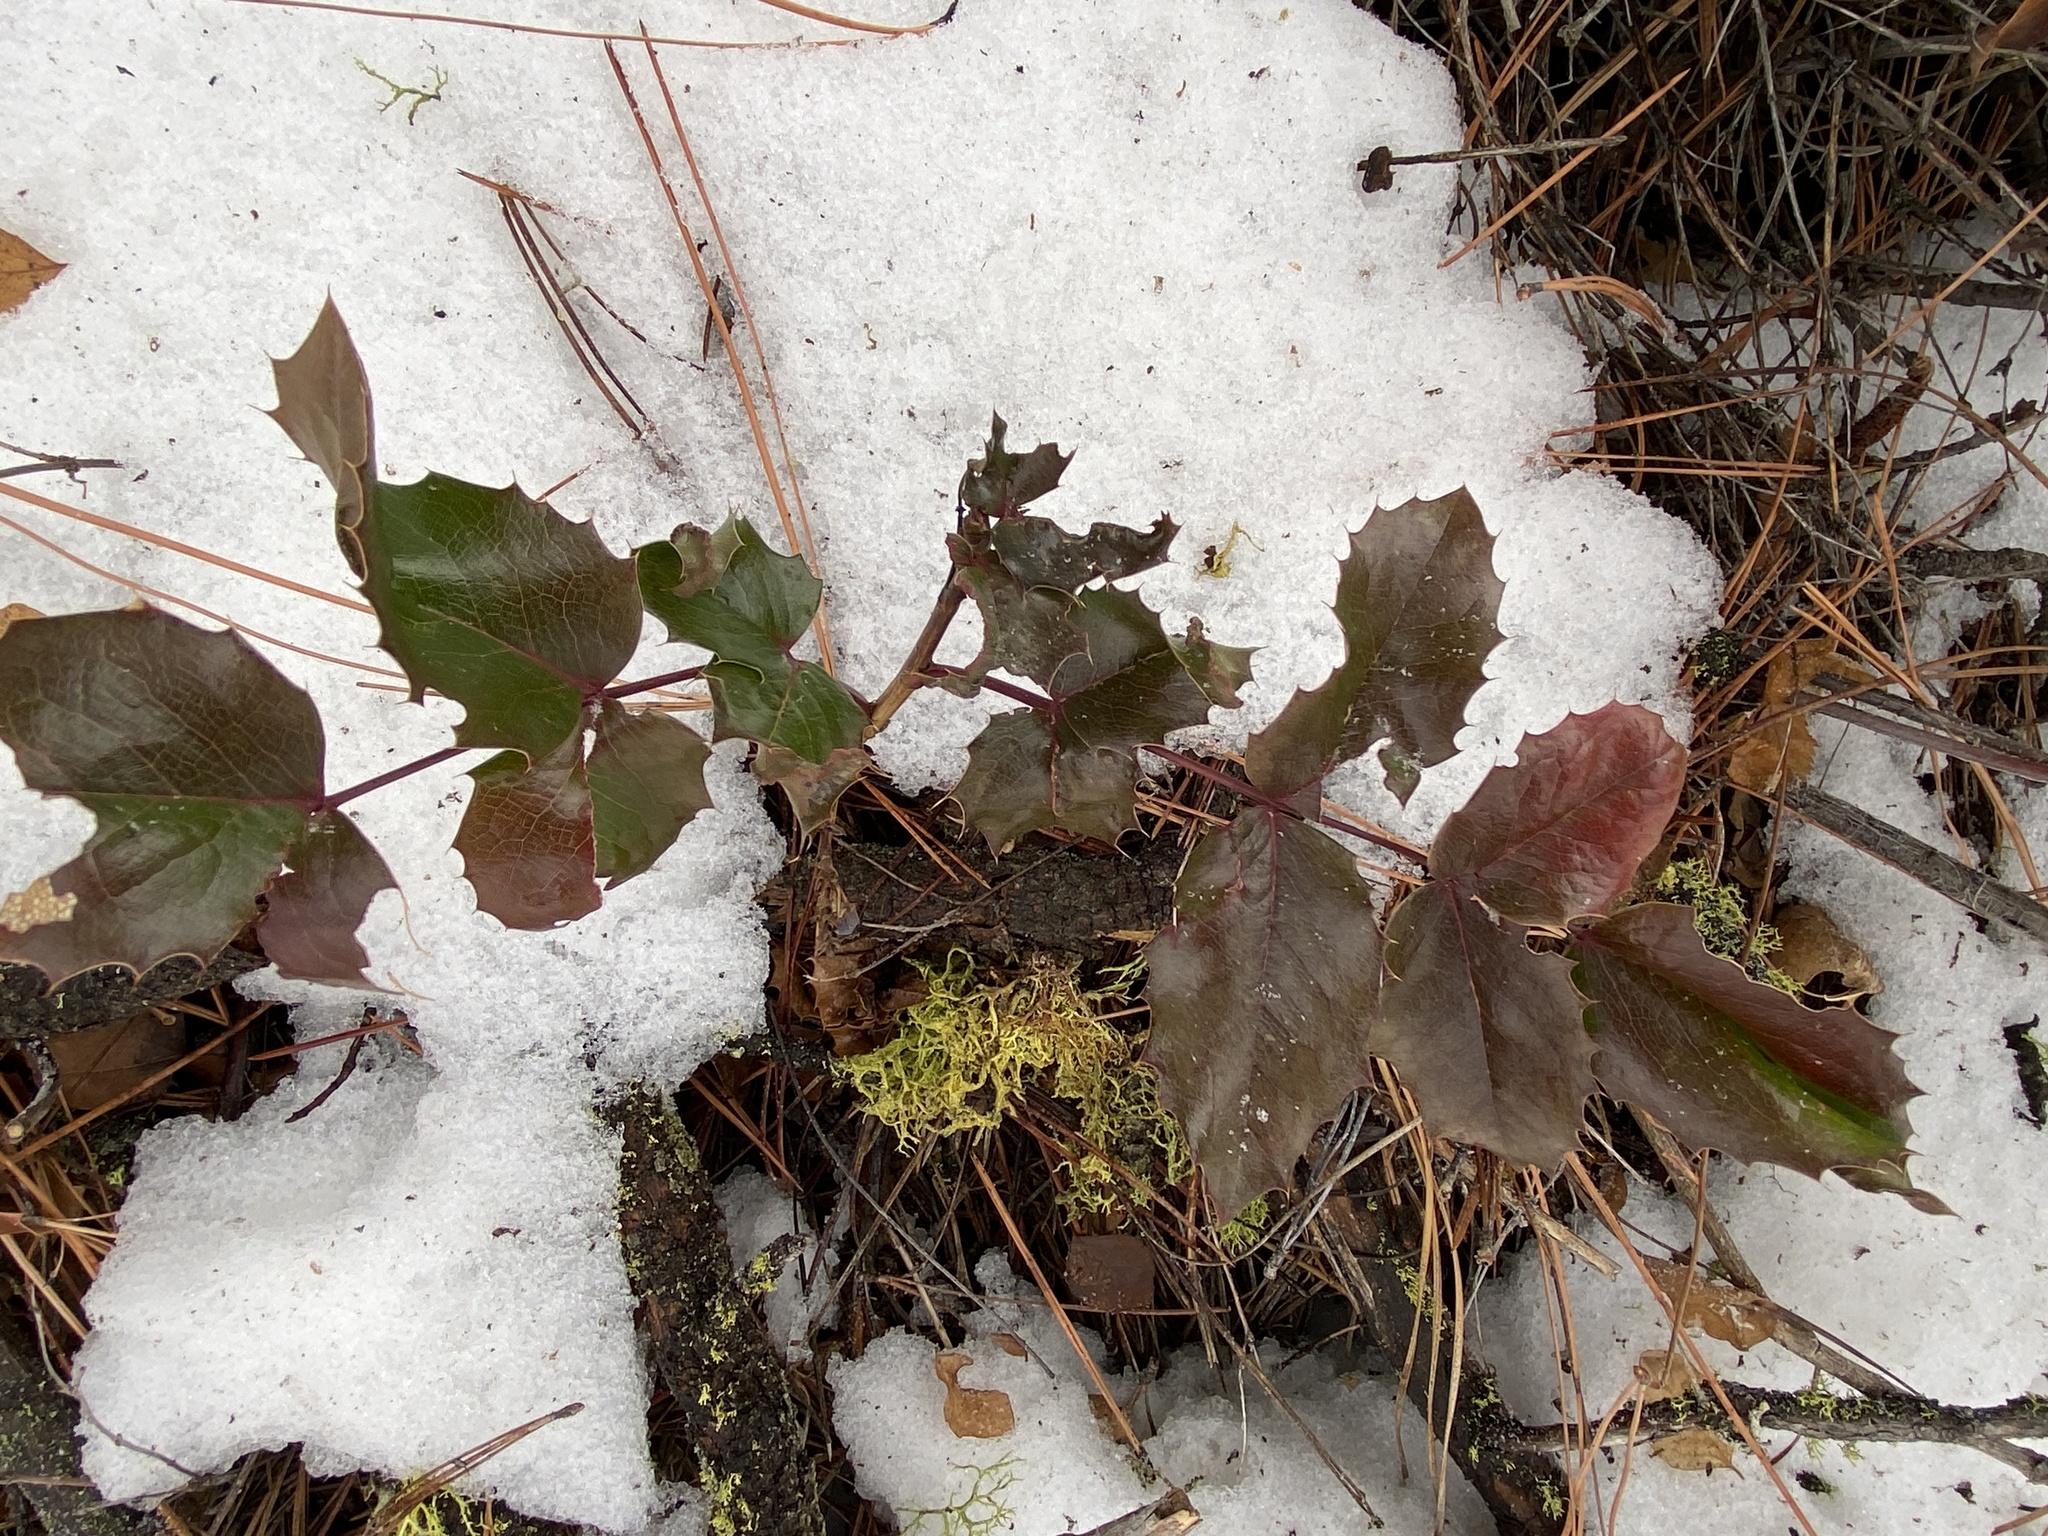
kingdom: Plantae
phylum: Tracheophyta
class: Magnoliopsida
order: Ranunculales
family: Berberidaceae
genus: Mahonia
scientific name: Mahonia repens
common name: Creeping oregon-grape
